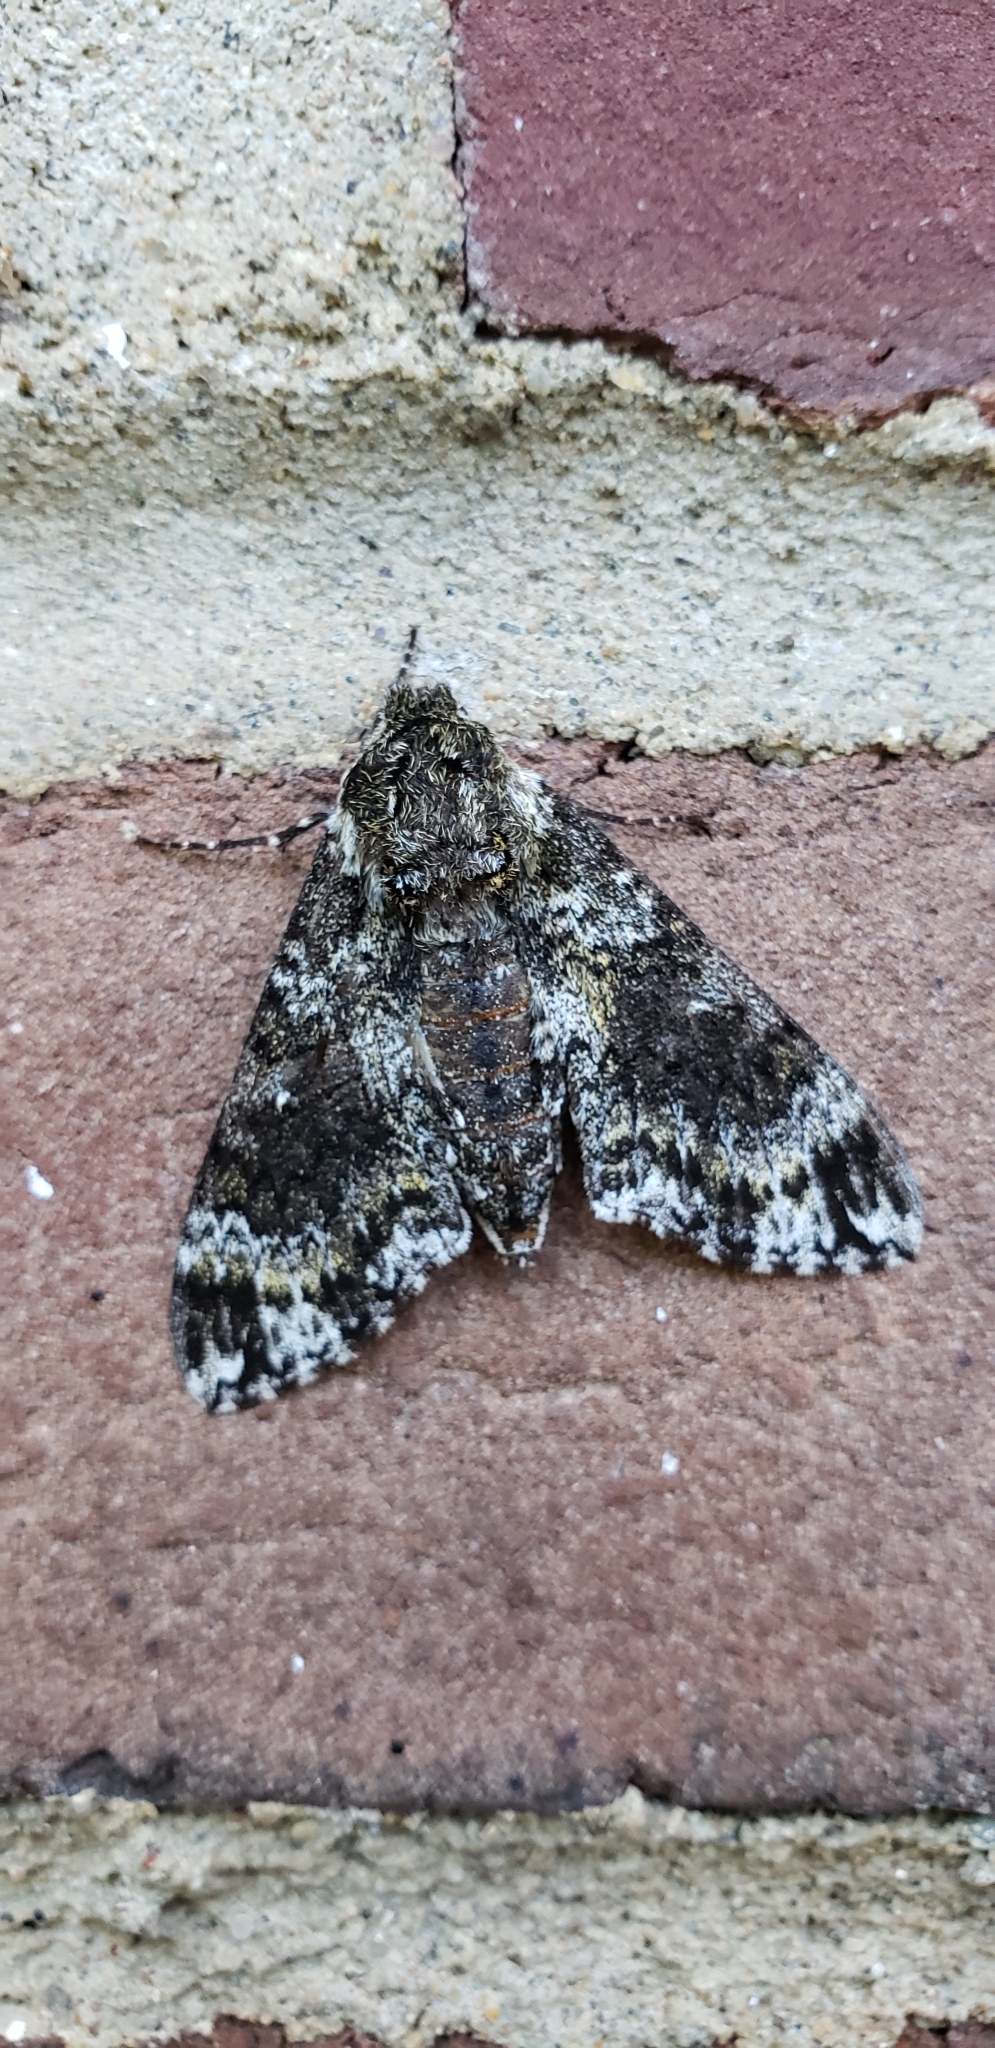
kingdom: Animalia
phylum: Arthropoda
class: Insecta
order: Lepidoptera
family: Sphingidae
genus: Dolba
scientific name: Dolba hyloeus
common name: Pawpaw sphinx
